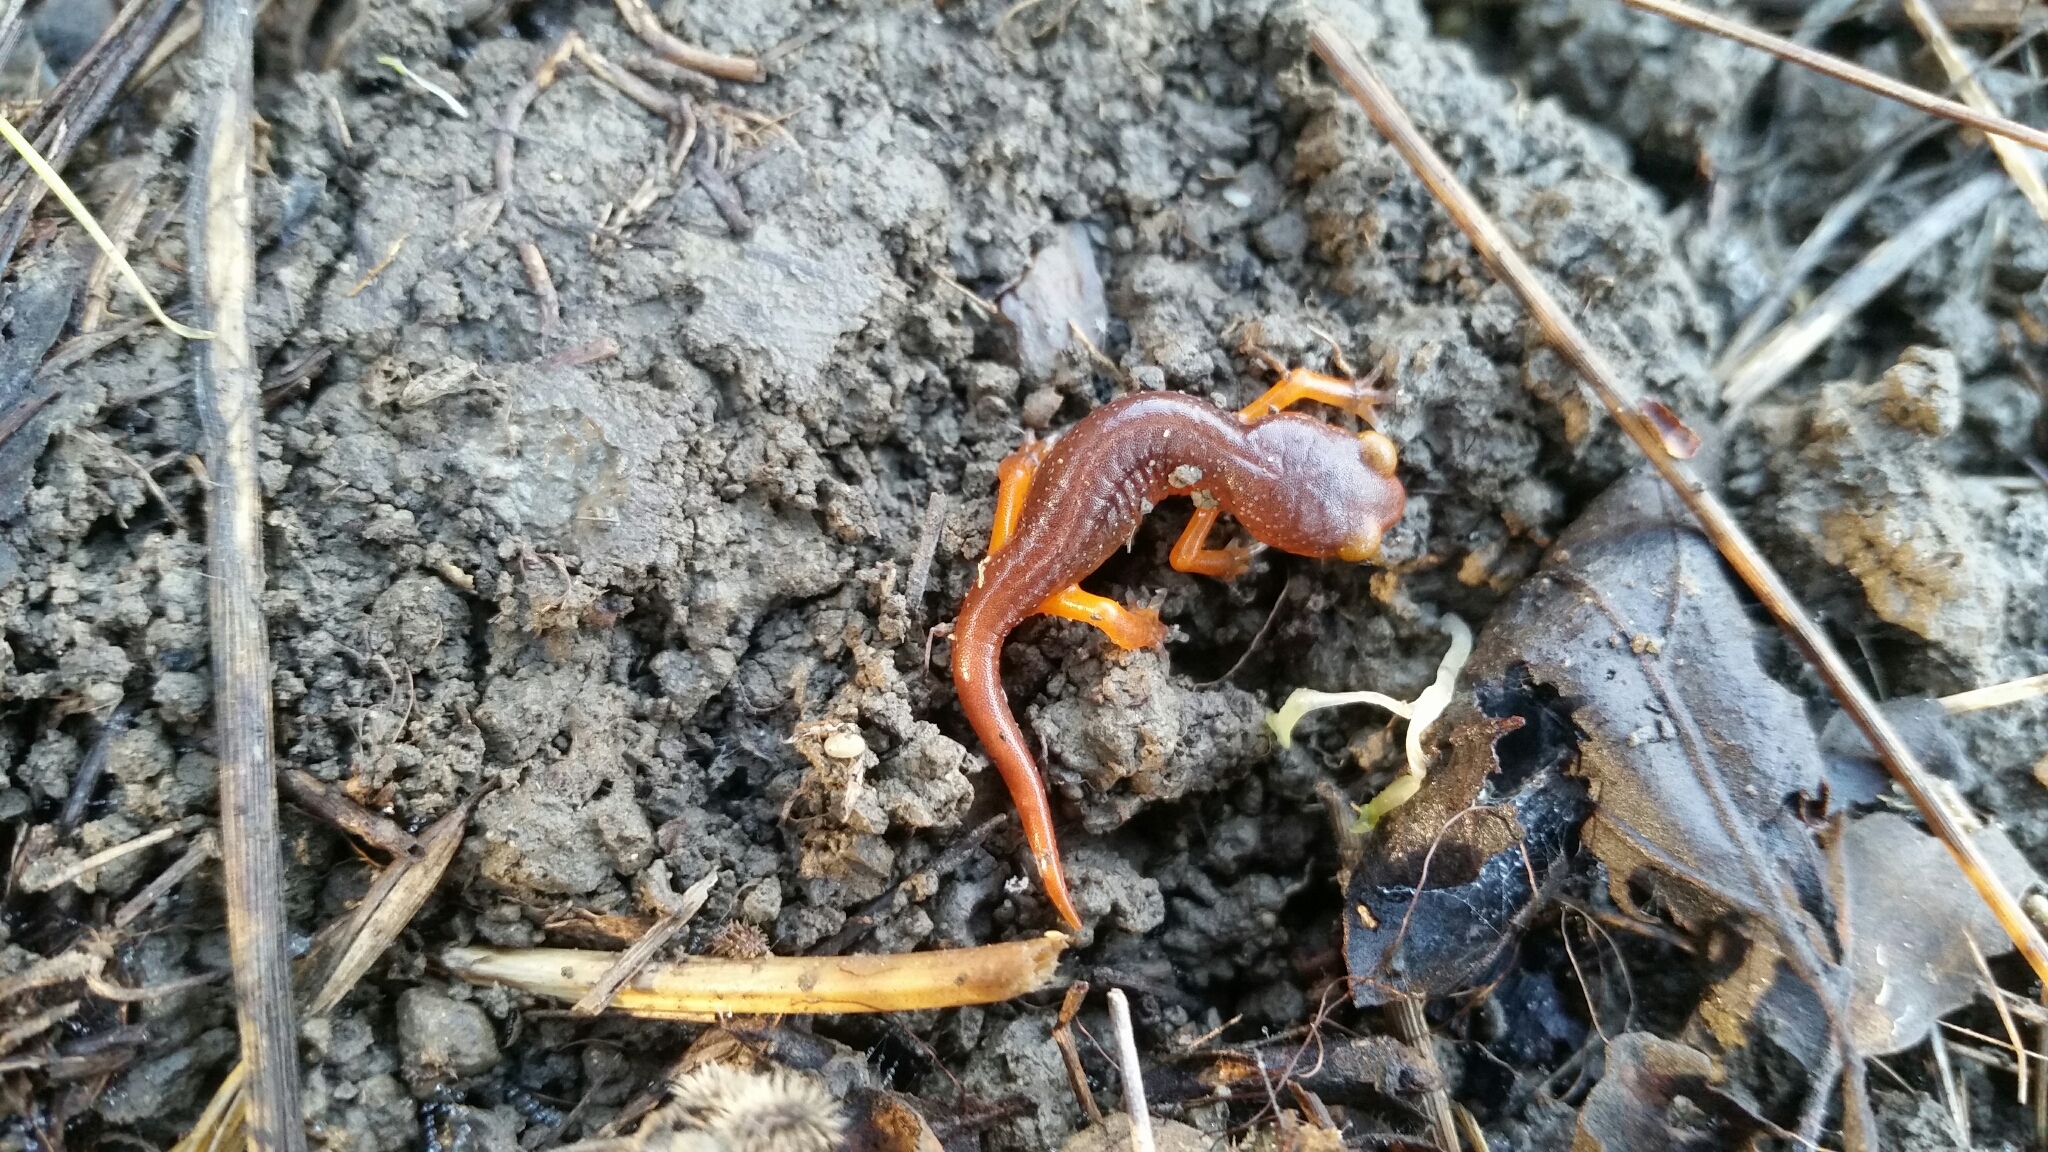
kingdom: Animalia
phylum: Chordata
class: Amphibia
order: Caudata
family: Plethodontidae
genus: Ensatina
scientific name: Ensatina eschscholtzii
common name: Ensatina
